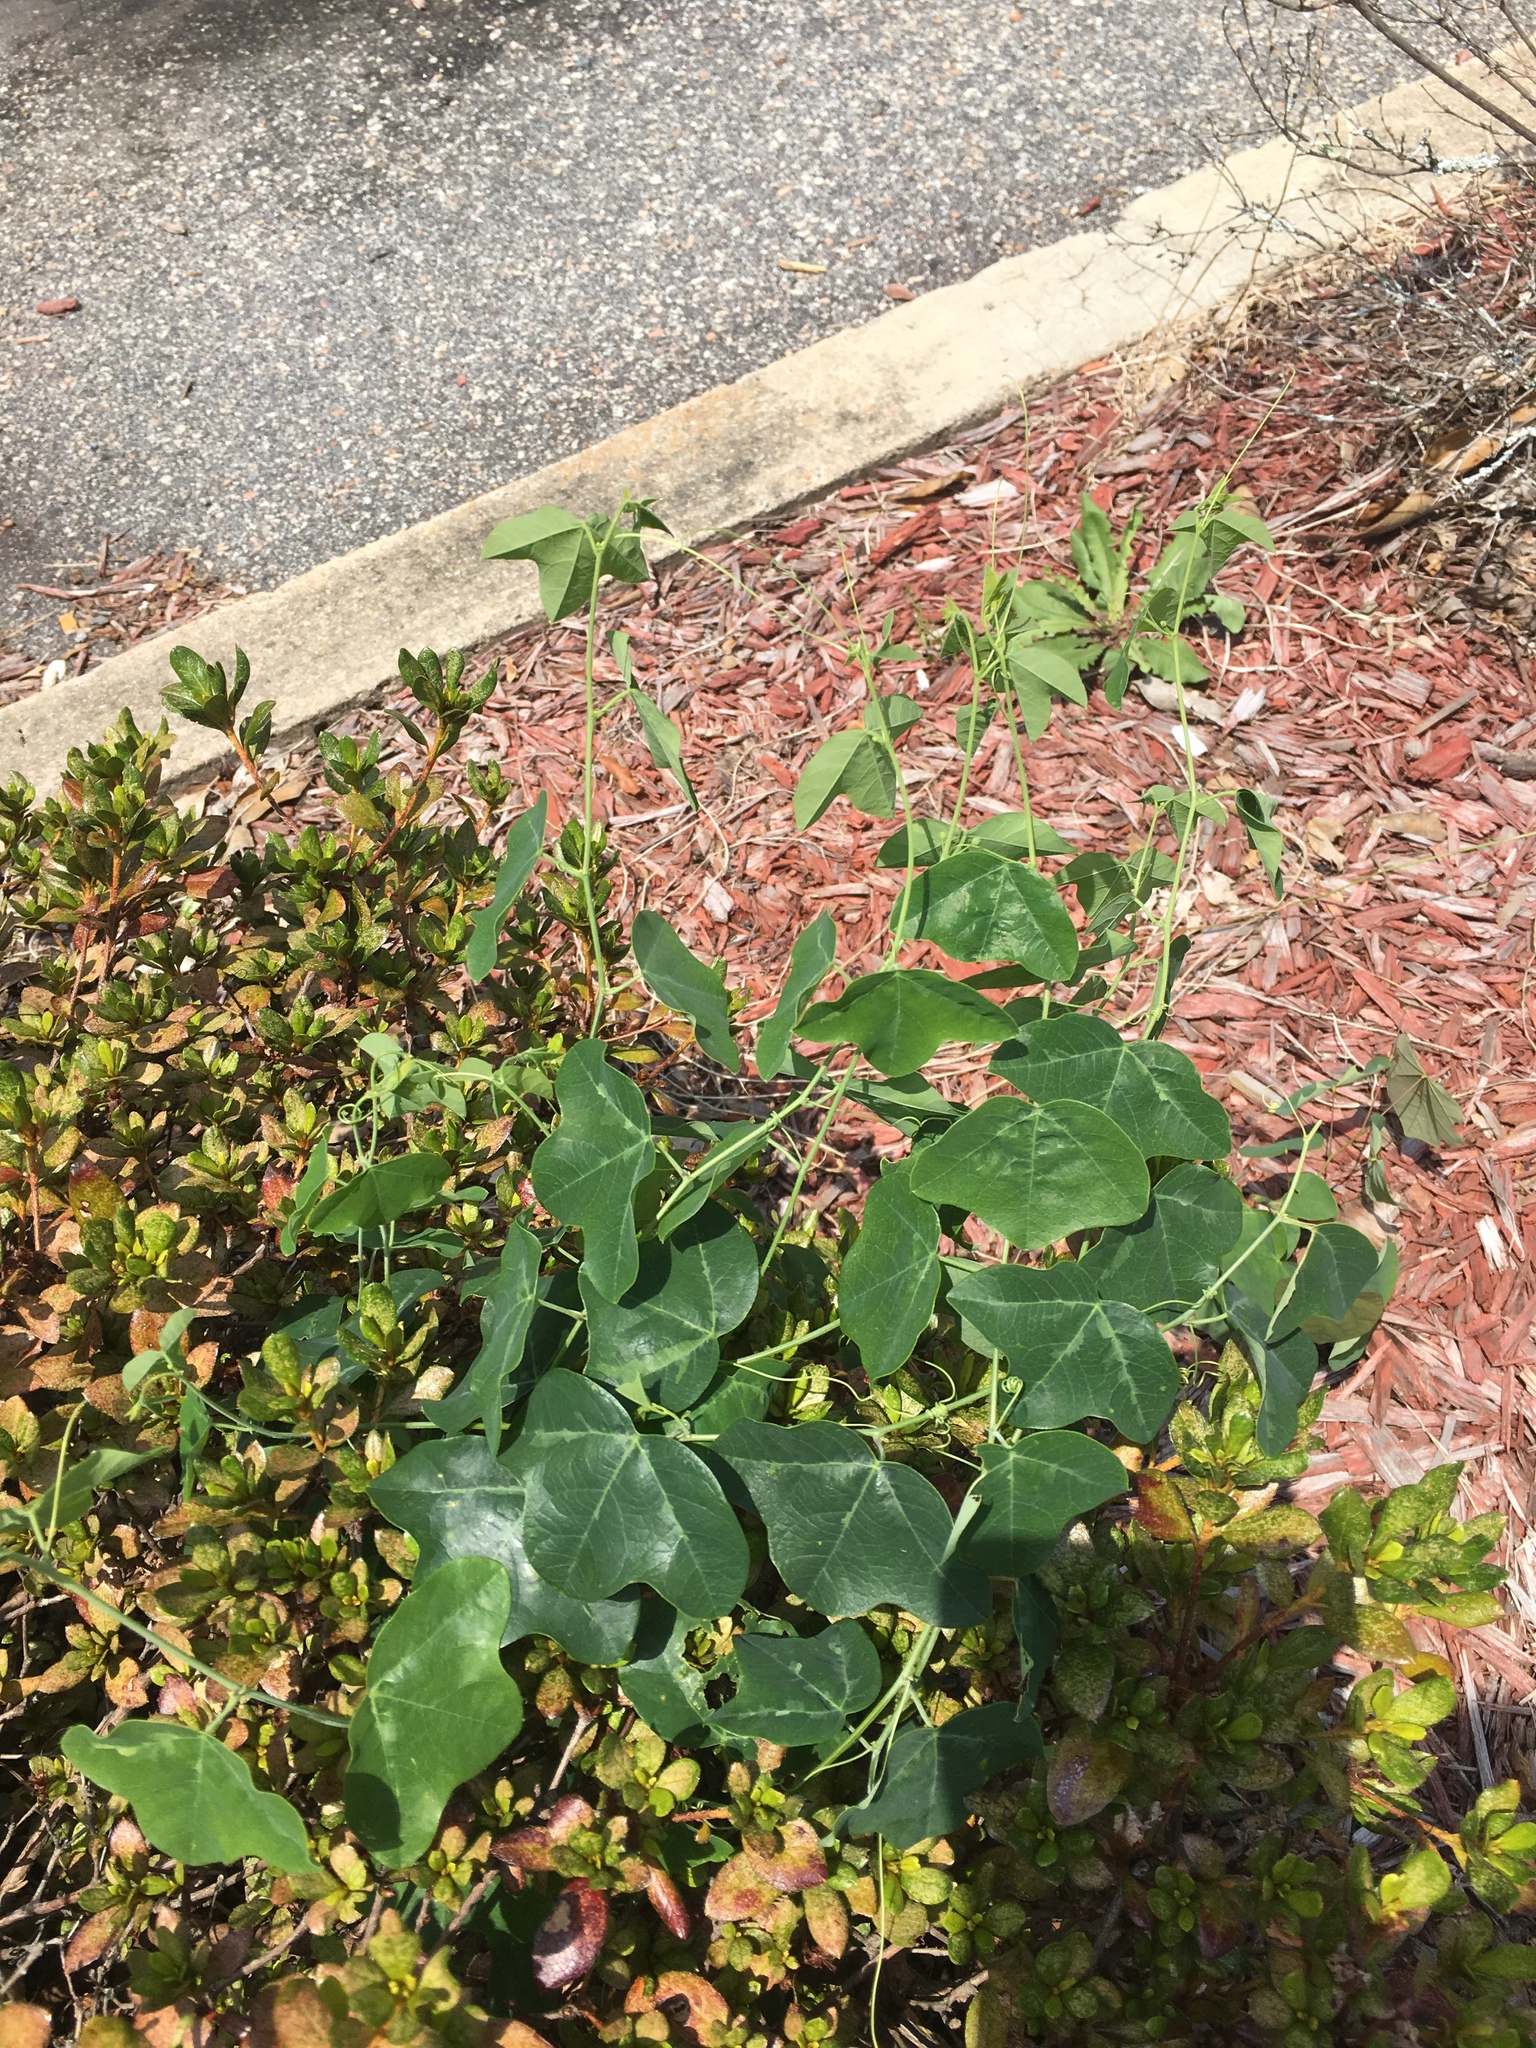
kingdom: Plantae
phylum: Tracheophyta
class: Magnoliopsida
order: Malpighiales
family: Passifloraceae
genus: Passiflora
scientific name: Passiflora lutea
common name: Yellow passionflower
